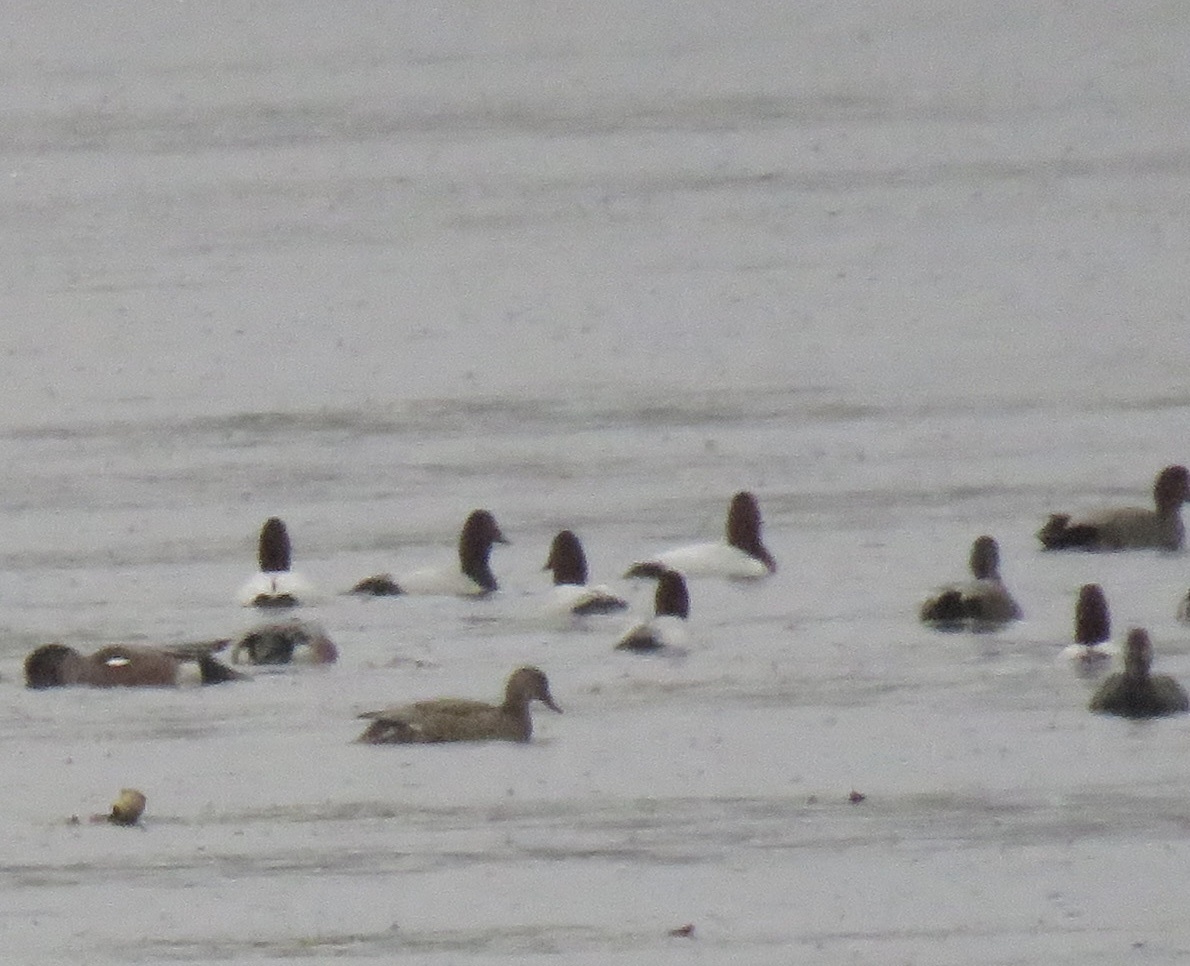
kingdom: Animalia
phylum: Chordata
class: Aves
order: Anseriformes
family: Anatidae
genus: Aythya
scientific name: Aythya valisineria
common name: Canvasback
